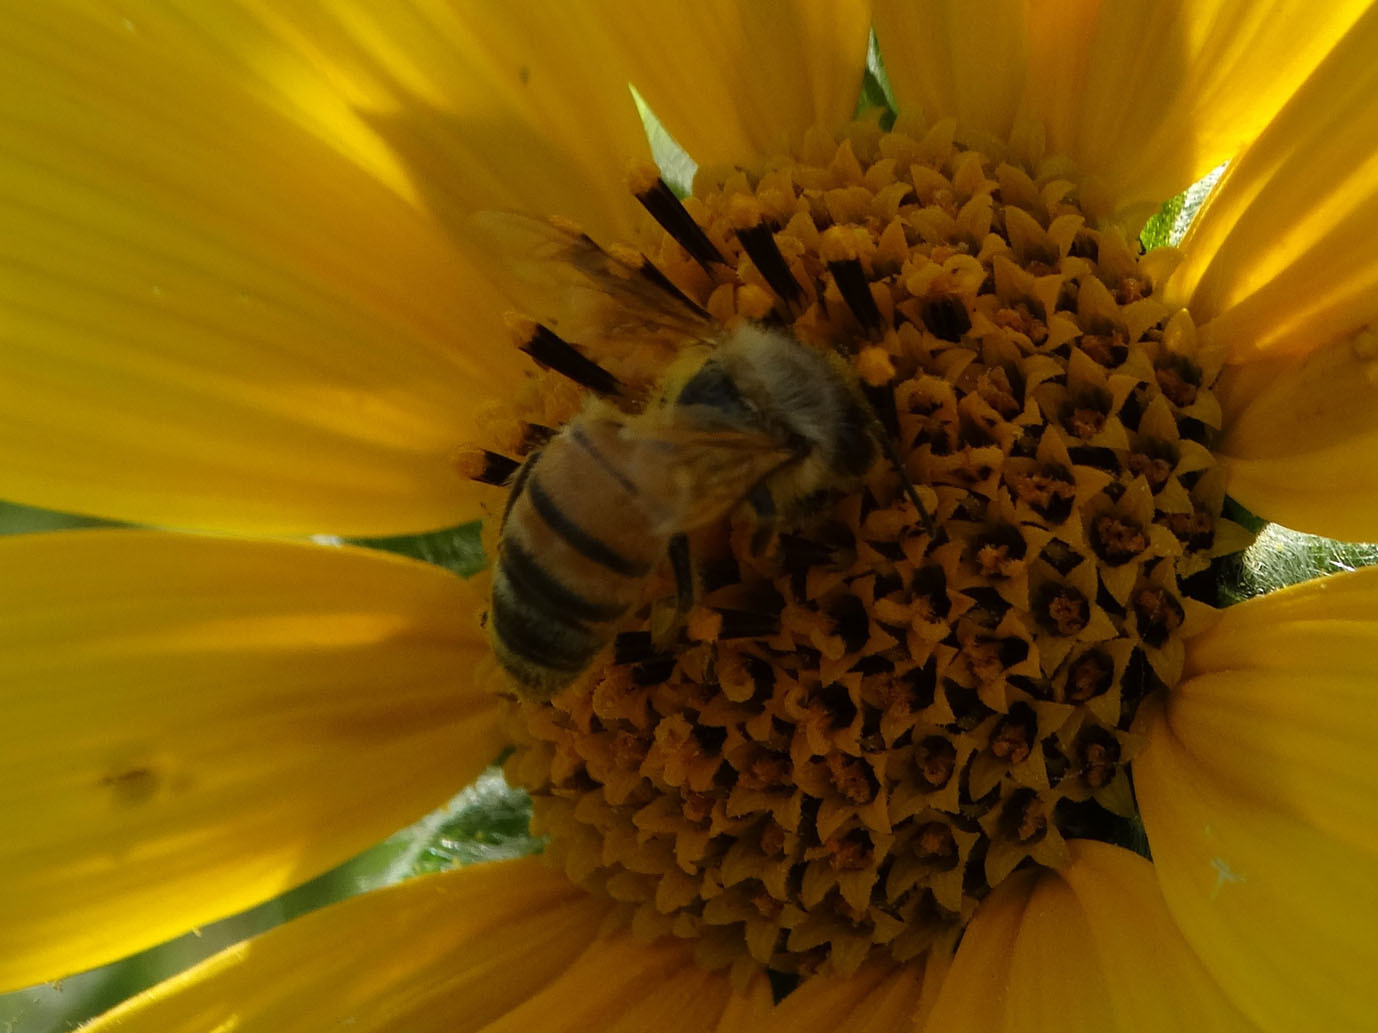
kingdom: Animalia
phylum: Arthropoda
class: Insecta
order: Hymenoptera
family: Apidae
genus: Apis
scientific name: Apis mellifera
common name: Honey bee
